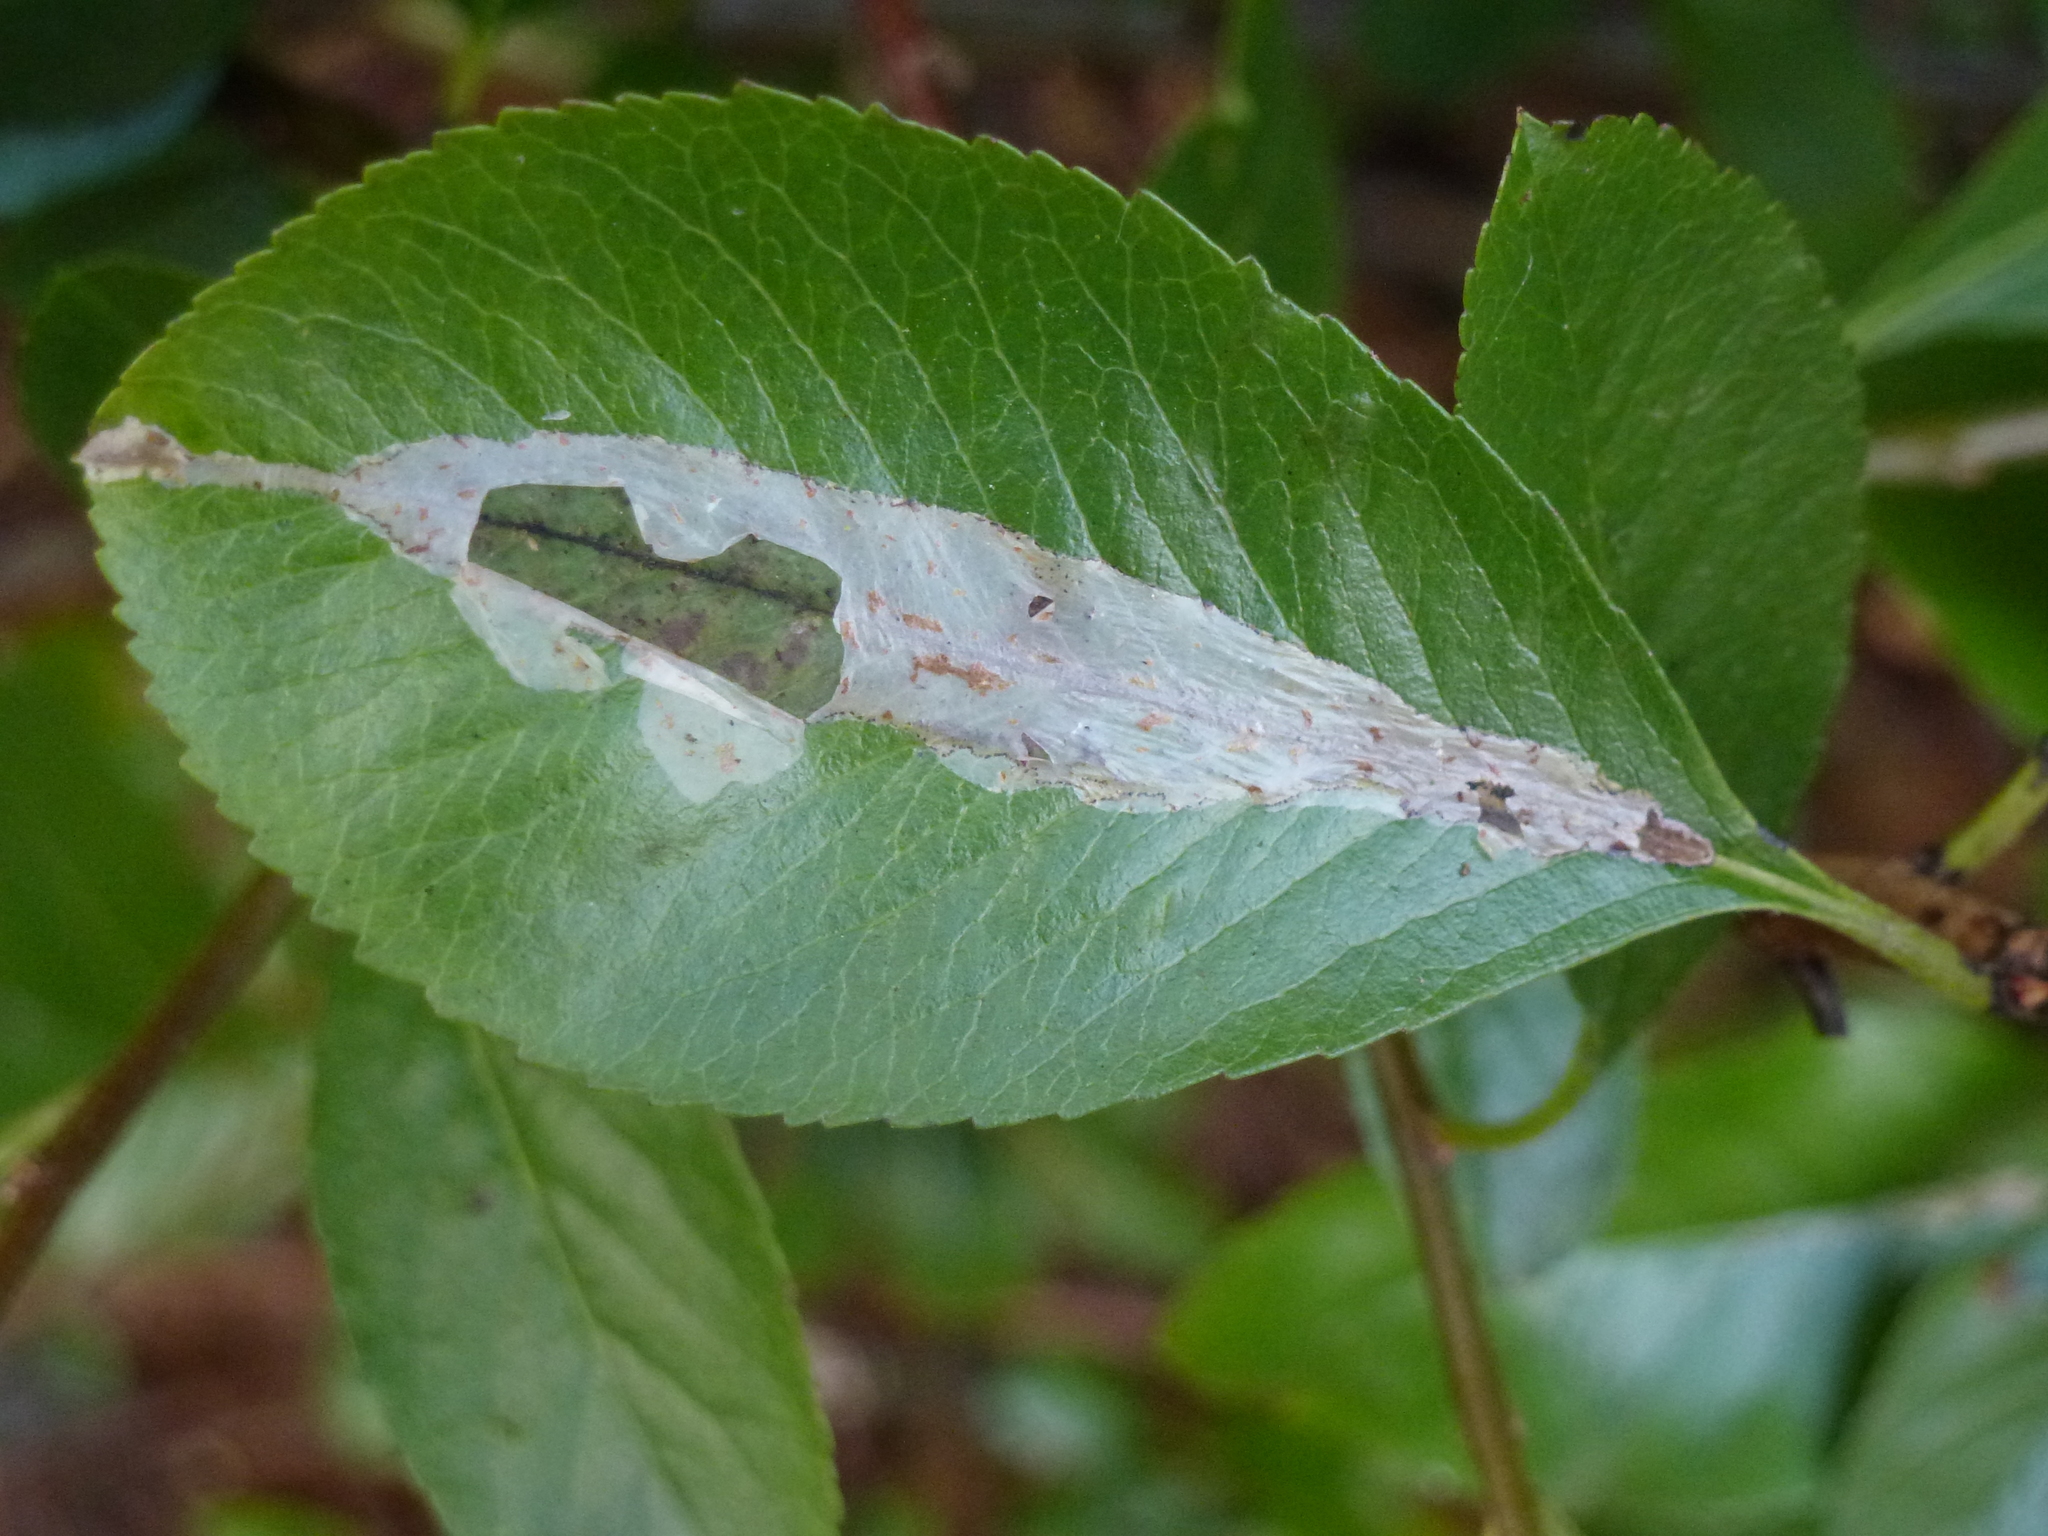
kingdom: Animalia
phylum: Arthropoda
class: Insecta
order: Lepidoptera
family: Gracillariidae
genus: Phyllonorycter
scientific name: Phyllonorycter leucographella
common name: Firethorn leaf-miner
